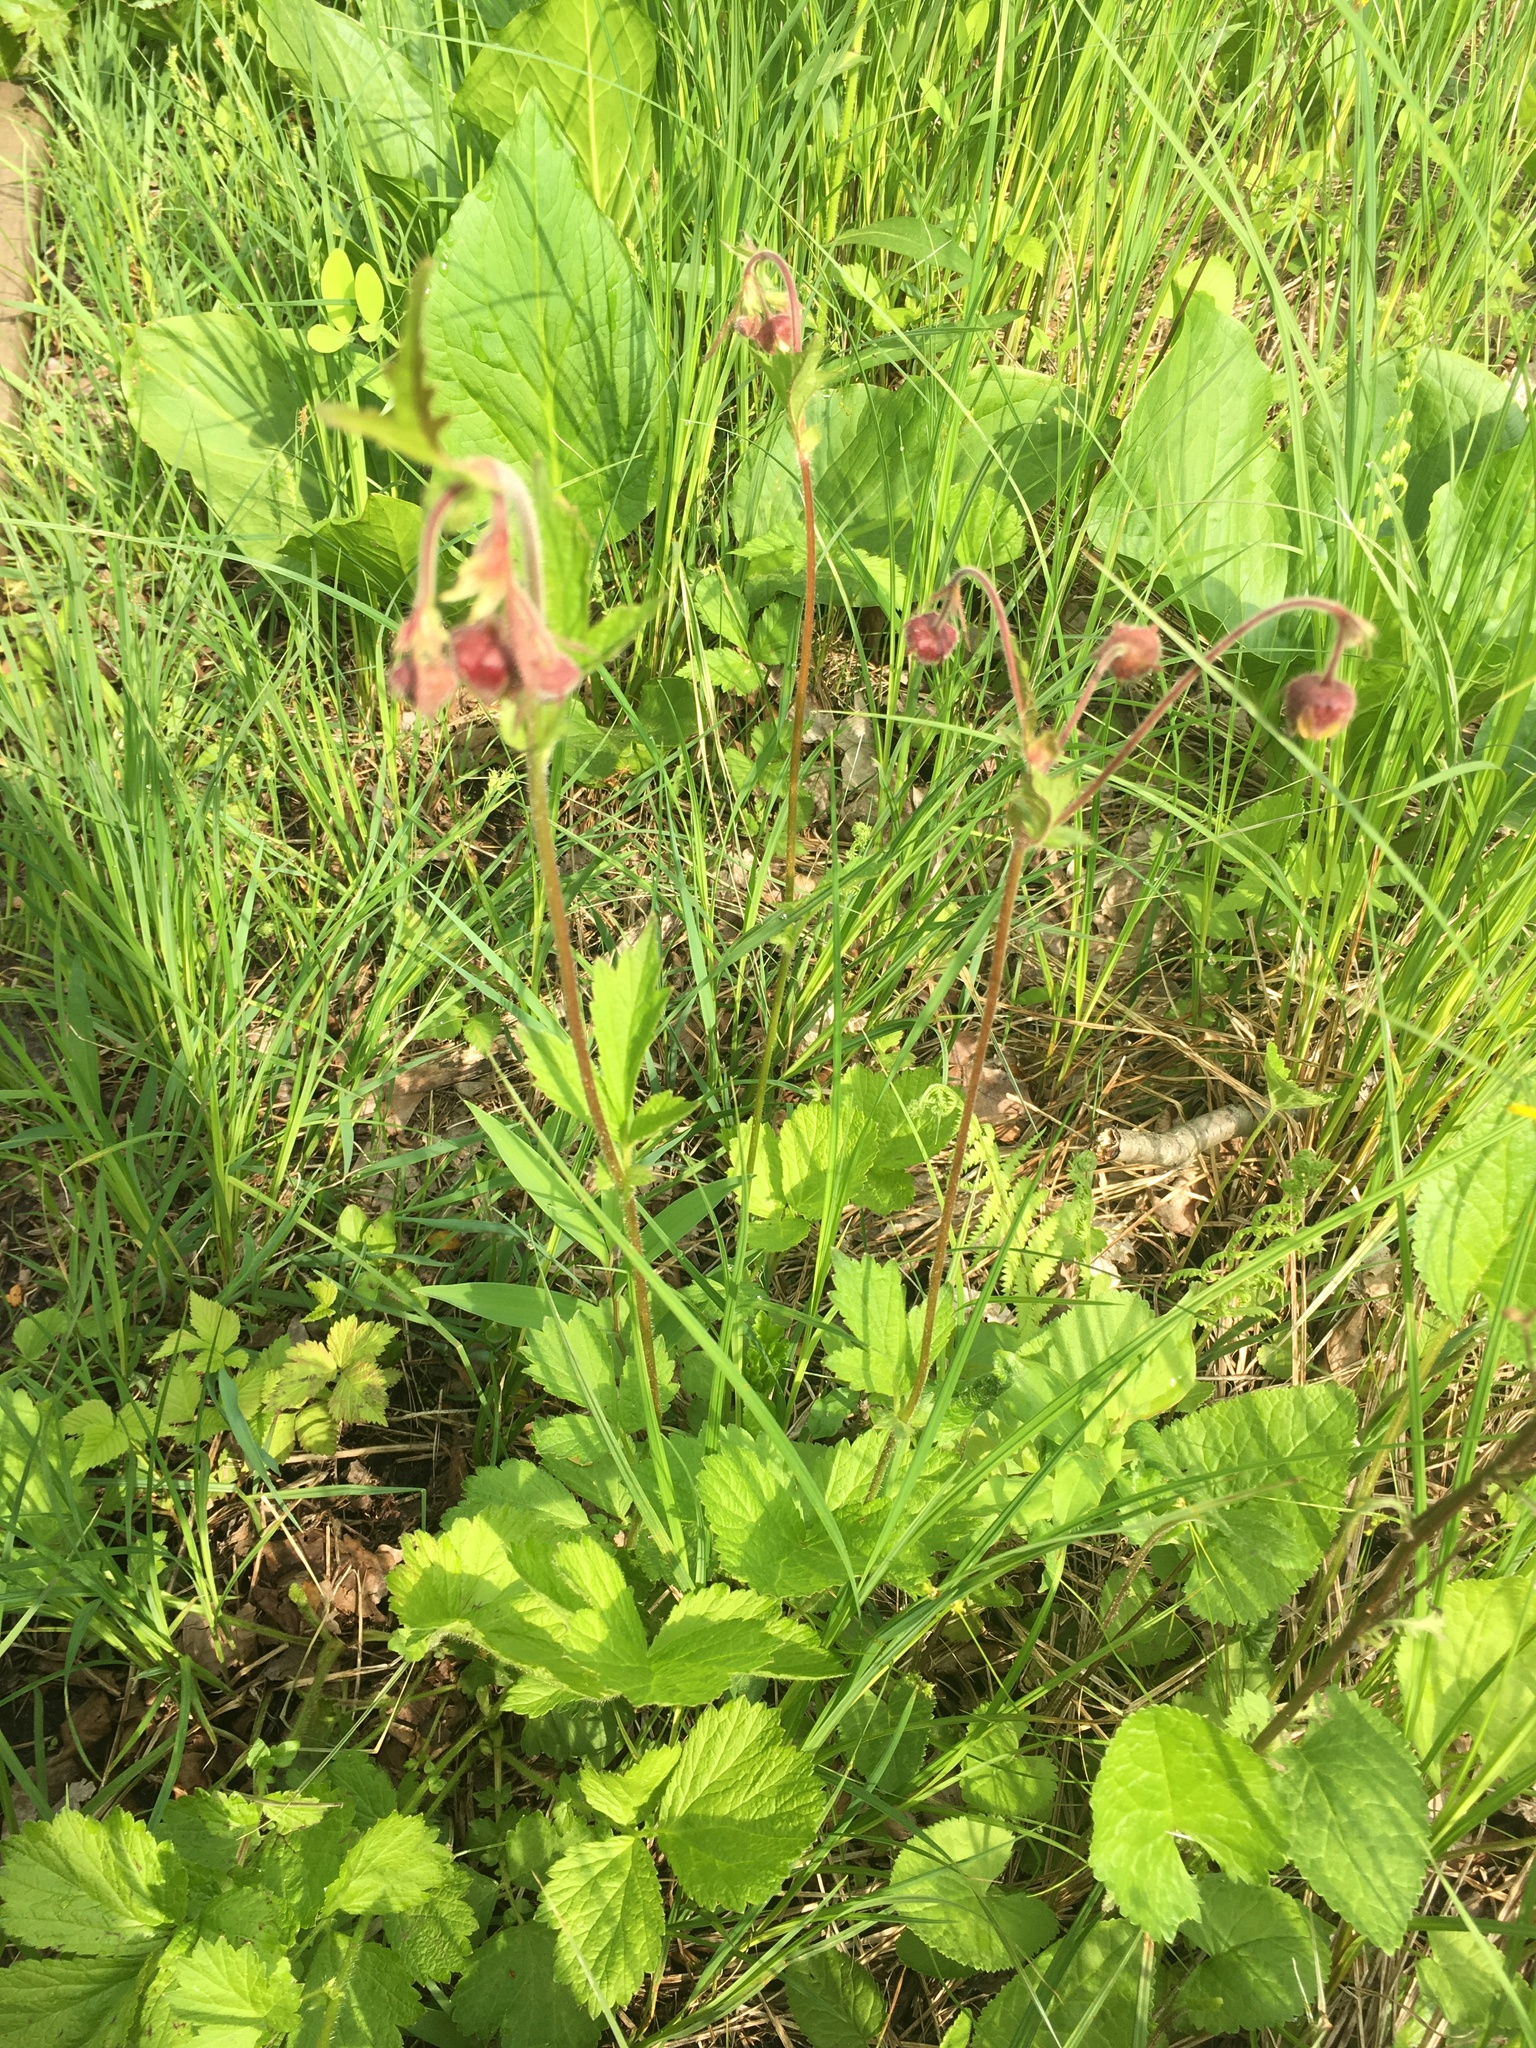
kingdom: Plantae
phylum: Tracheophyta
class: Magnoliopsida
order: Rosales
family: Rosaceae
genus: Geum
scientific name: Geum rivale
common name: Water avens
